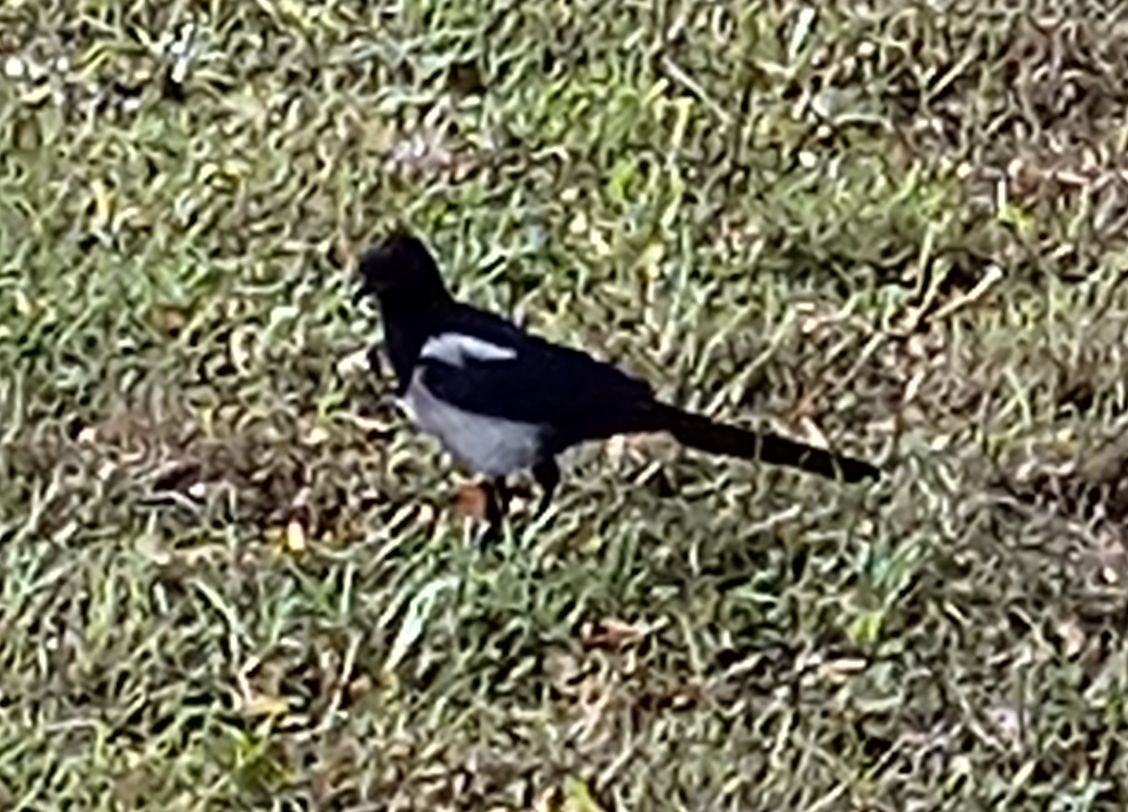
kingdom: Animalia
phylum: Chordata
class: Aves
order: Passeriformes
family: Corvidae
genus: Pica
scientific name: Pica pica
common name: Eurasian magpie
